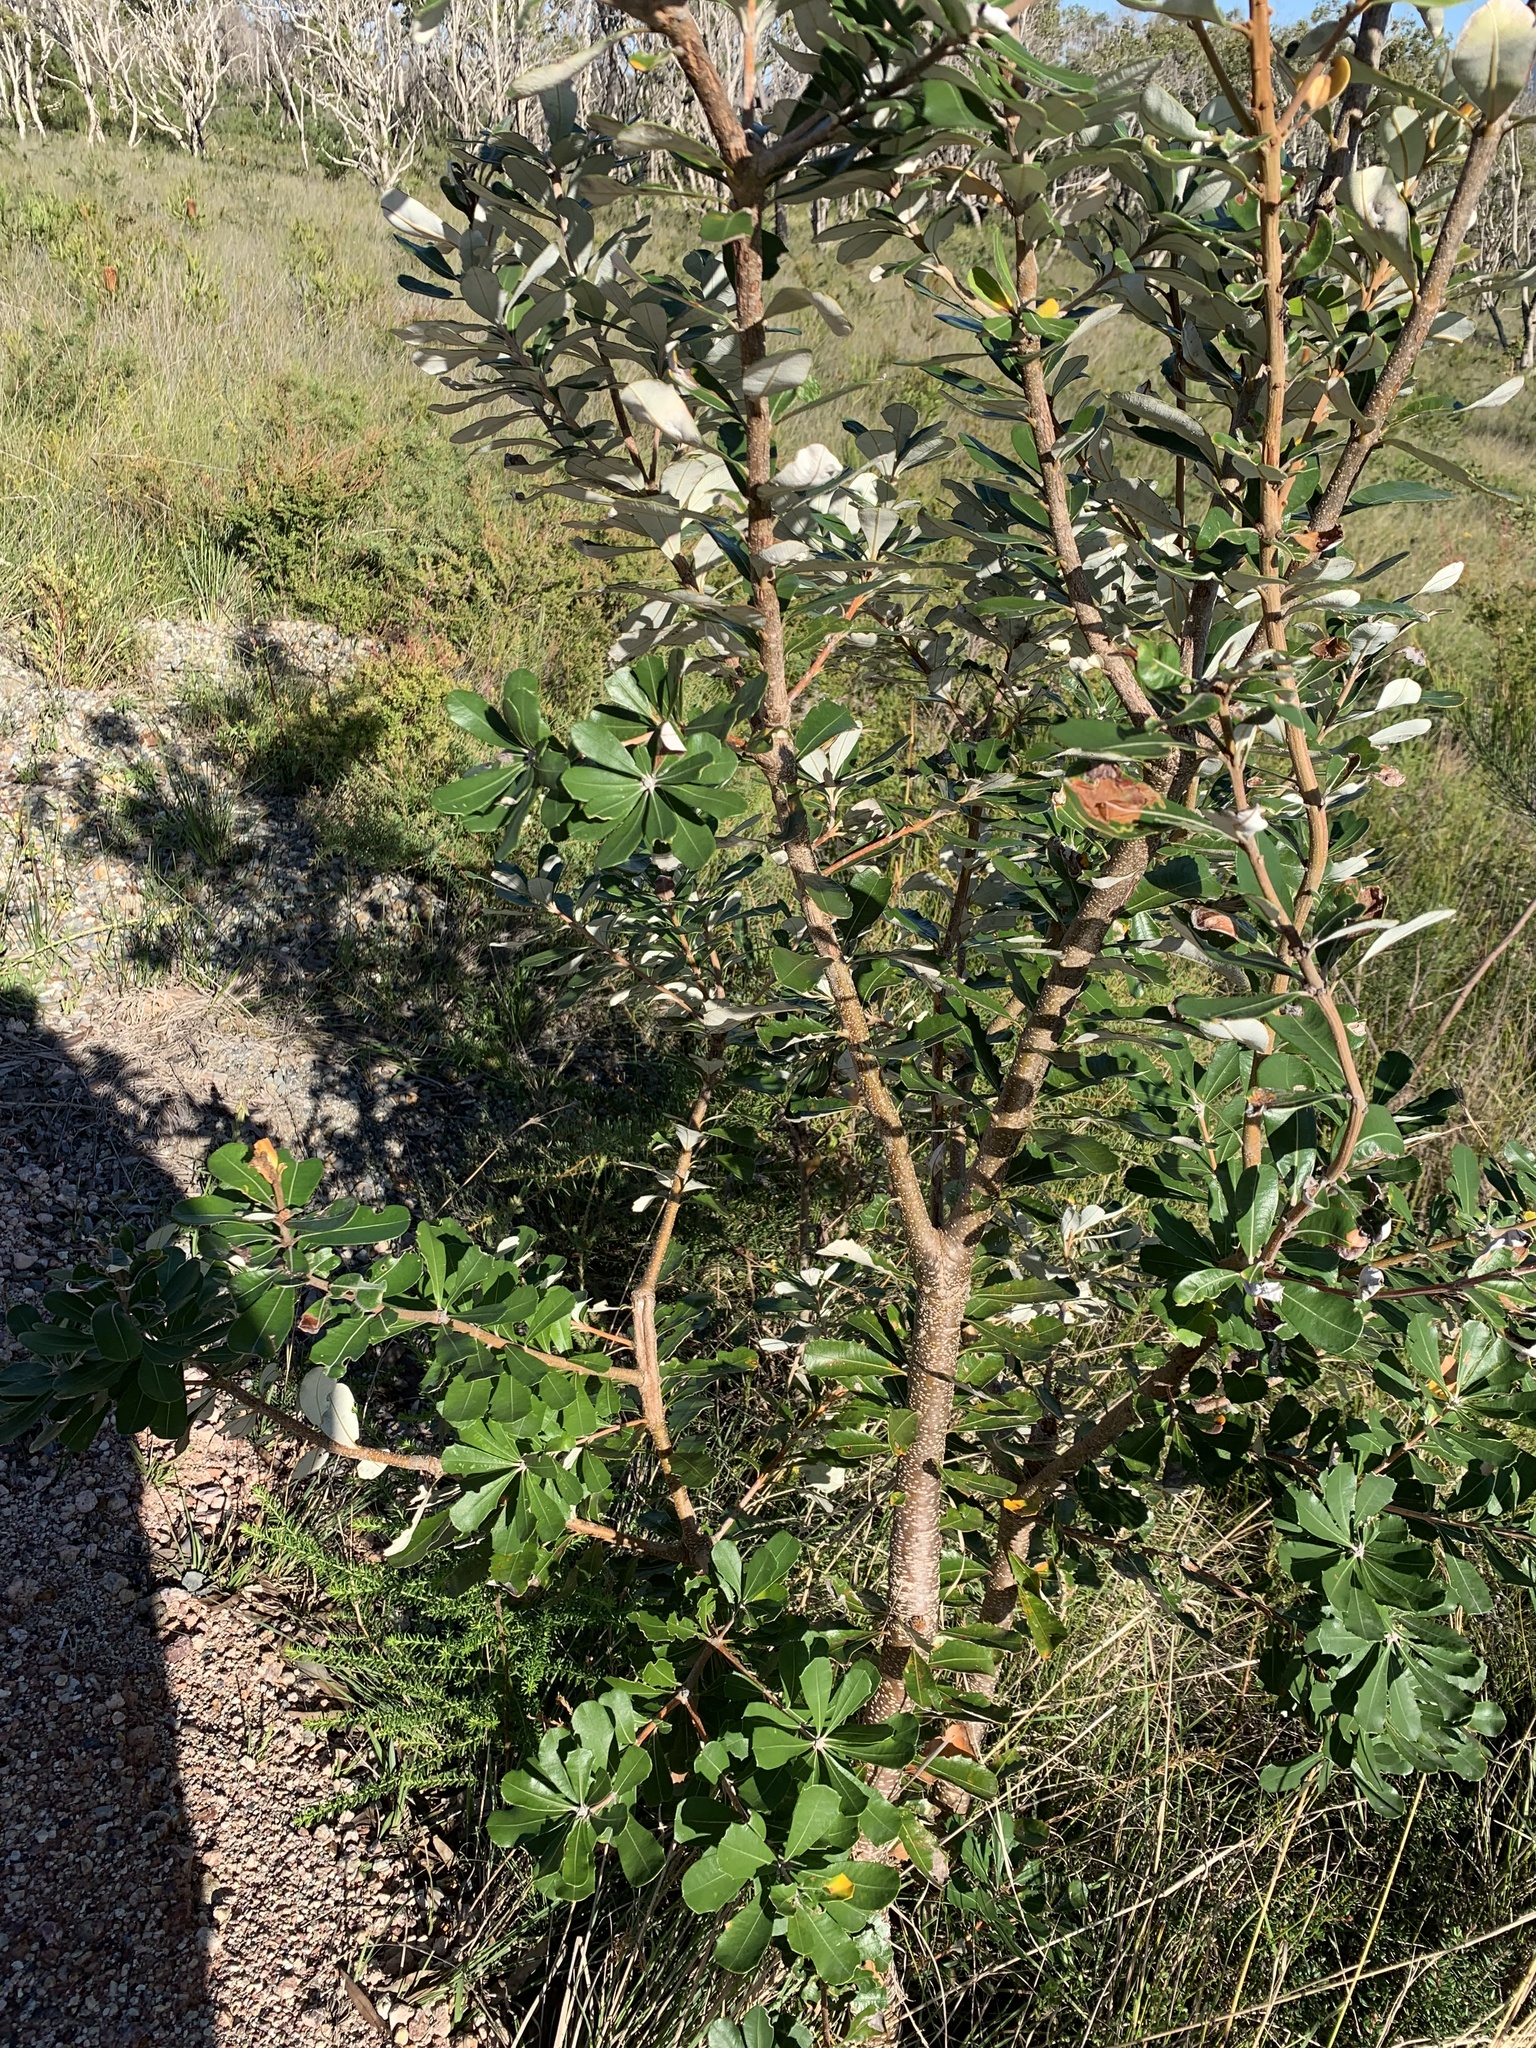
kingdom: Plantae
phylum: Tracheophyta
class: Magnoliopsida
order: Proteales
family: Proteaceae
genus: Banksia
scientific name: Banksia integrifolia
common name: White-honeysuckle
